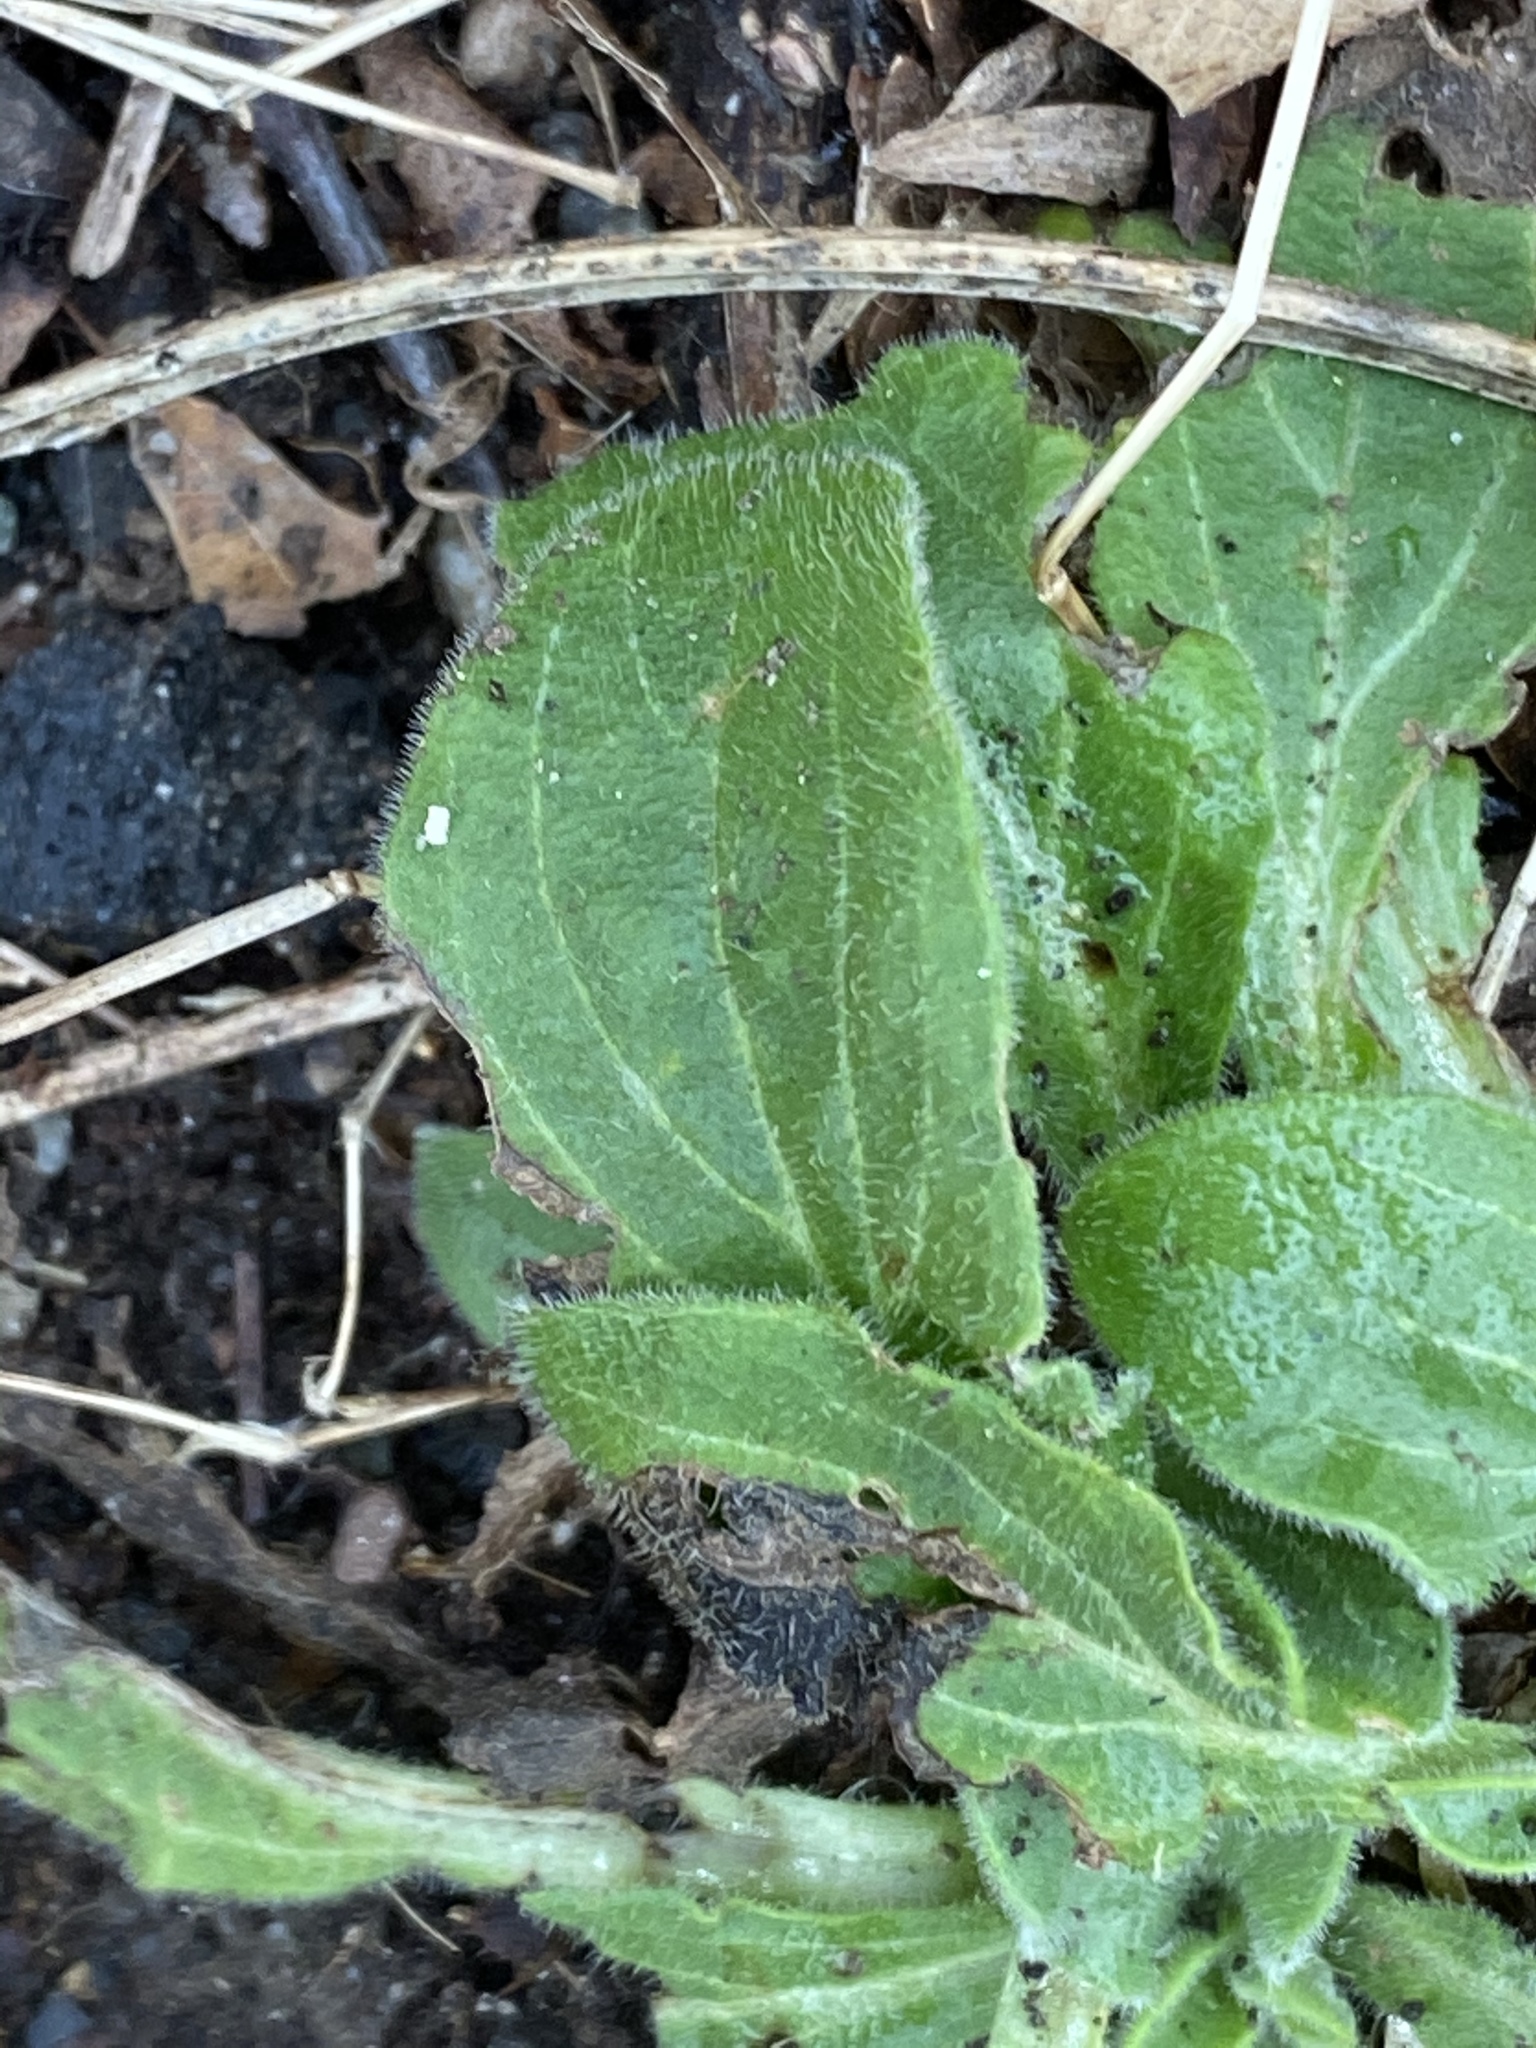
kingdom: Plantae
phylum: Tracheophyta
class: Magnoliopsida
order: Caryophyllales
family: Caryophyllaceae
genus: Silene
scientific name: Silene latifolia
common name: White campion
